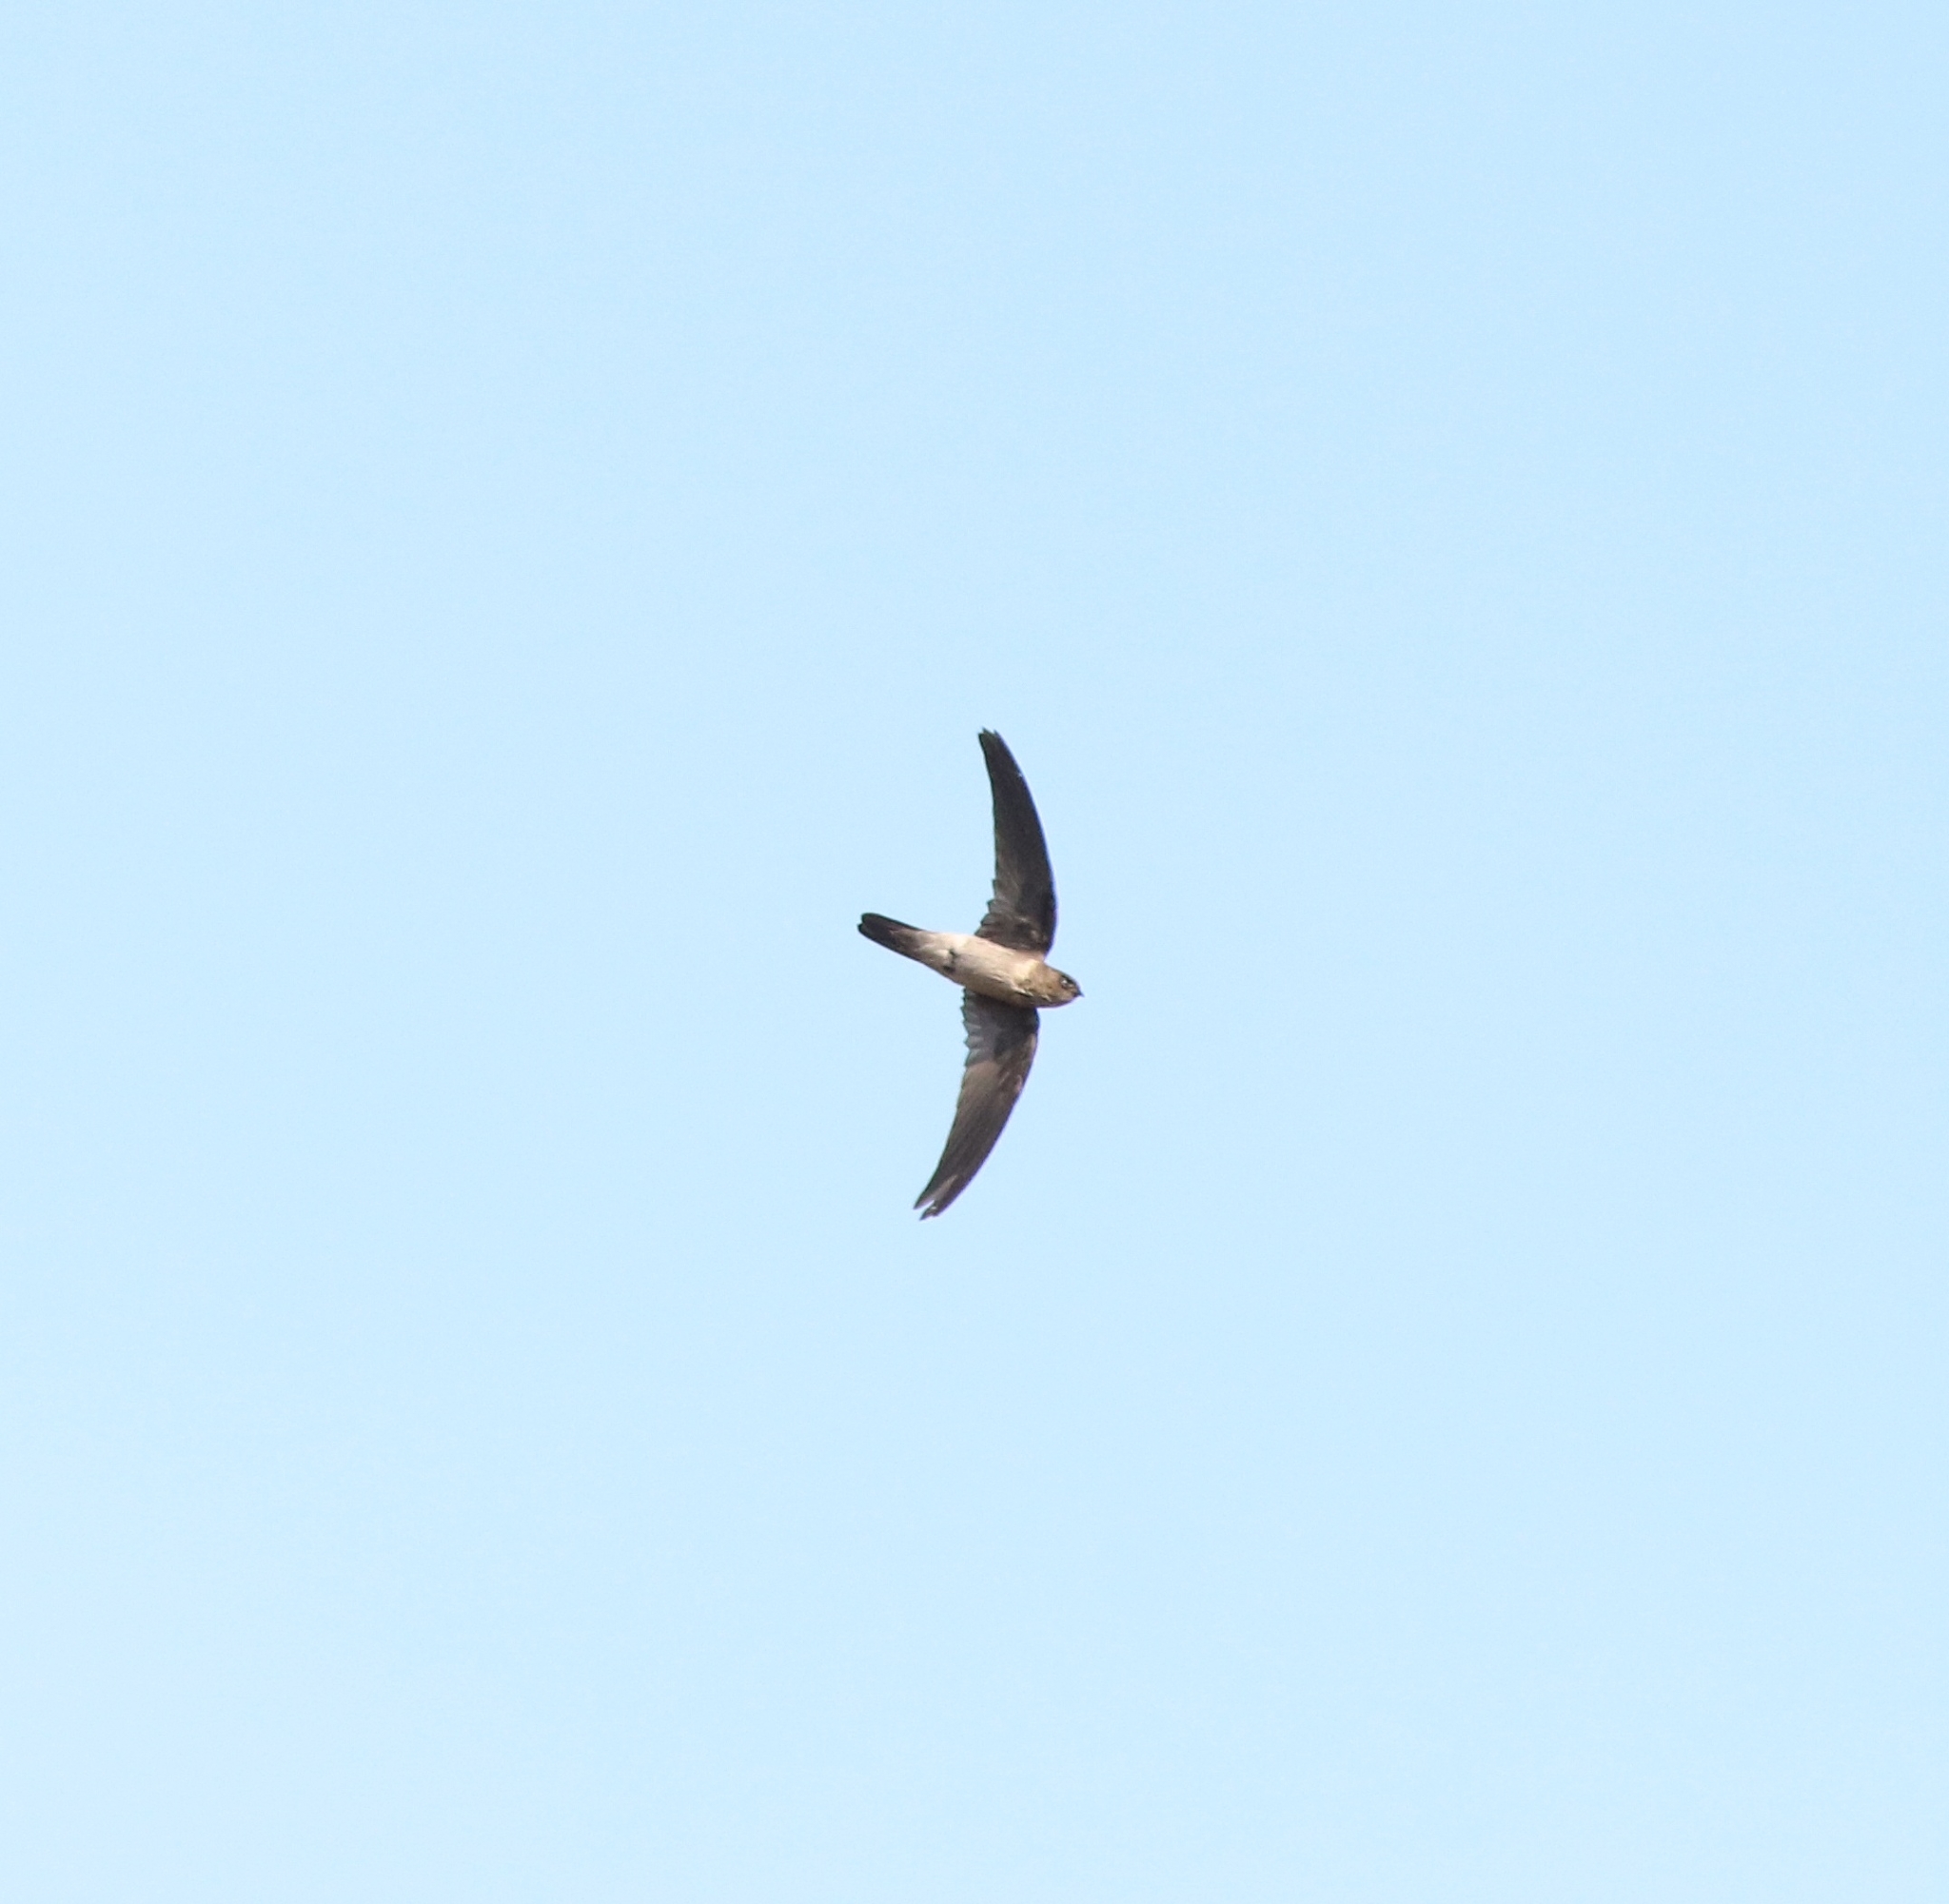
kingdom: Animalia
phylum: Chordata
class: Aves
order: Apodiformes
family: Apodidae
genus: Aerodramus
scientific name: Aerodramus unicolor
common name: Indian swiftlet
